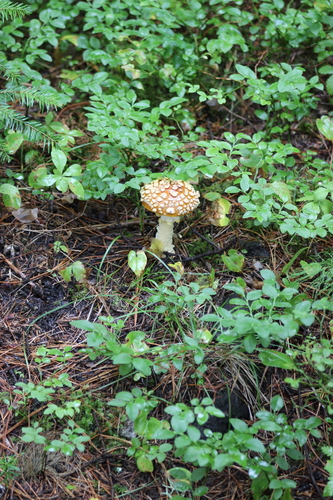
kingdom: Fungi
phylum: Basidiomycota
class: Agaricomycetes
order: Agaricales
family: Amanitaceae
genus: Amanita
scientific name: Amanita regalis
